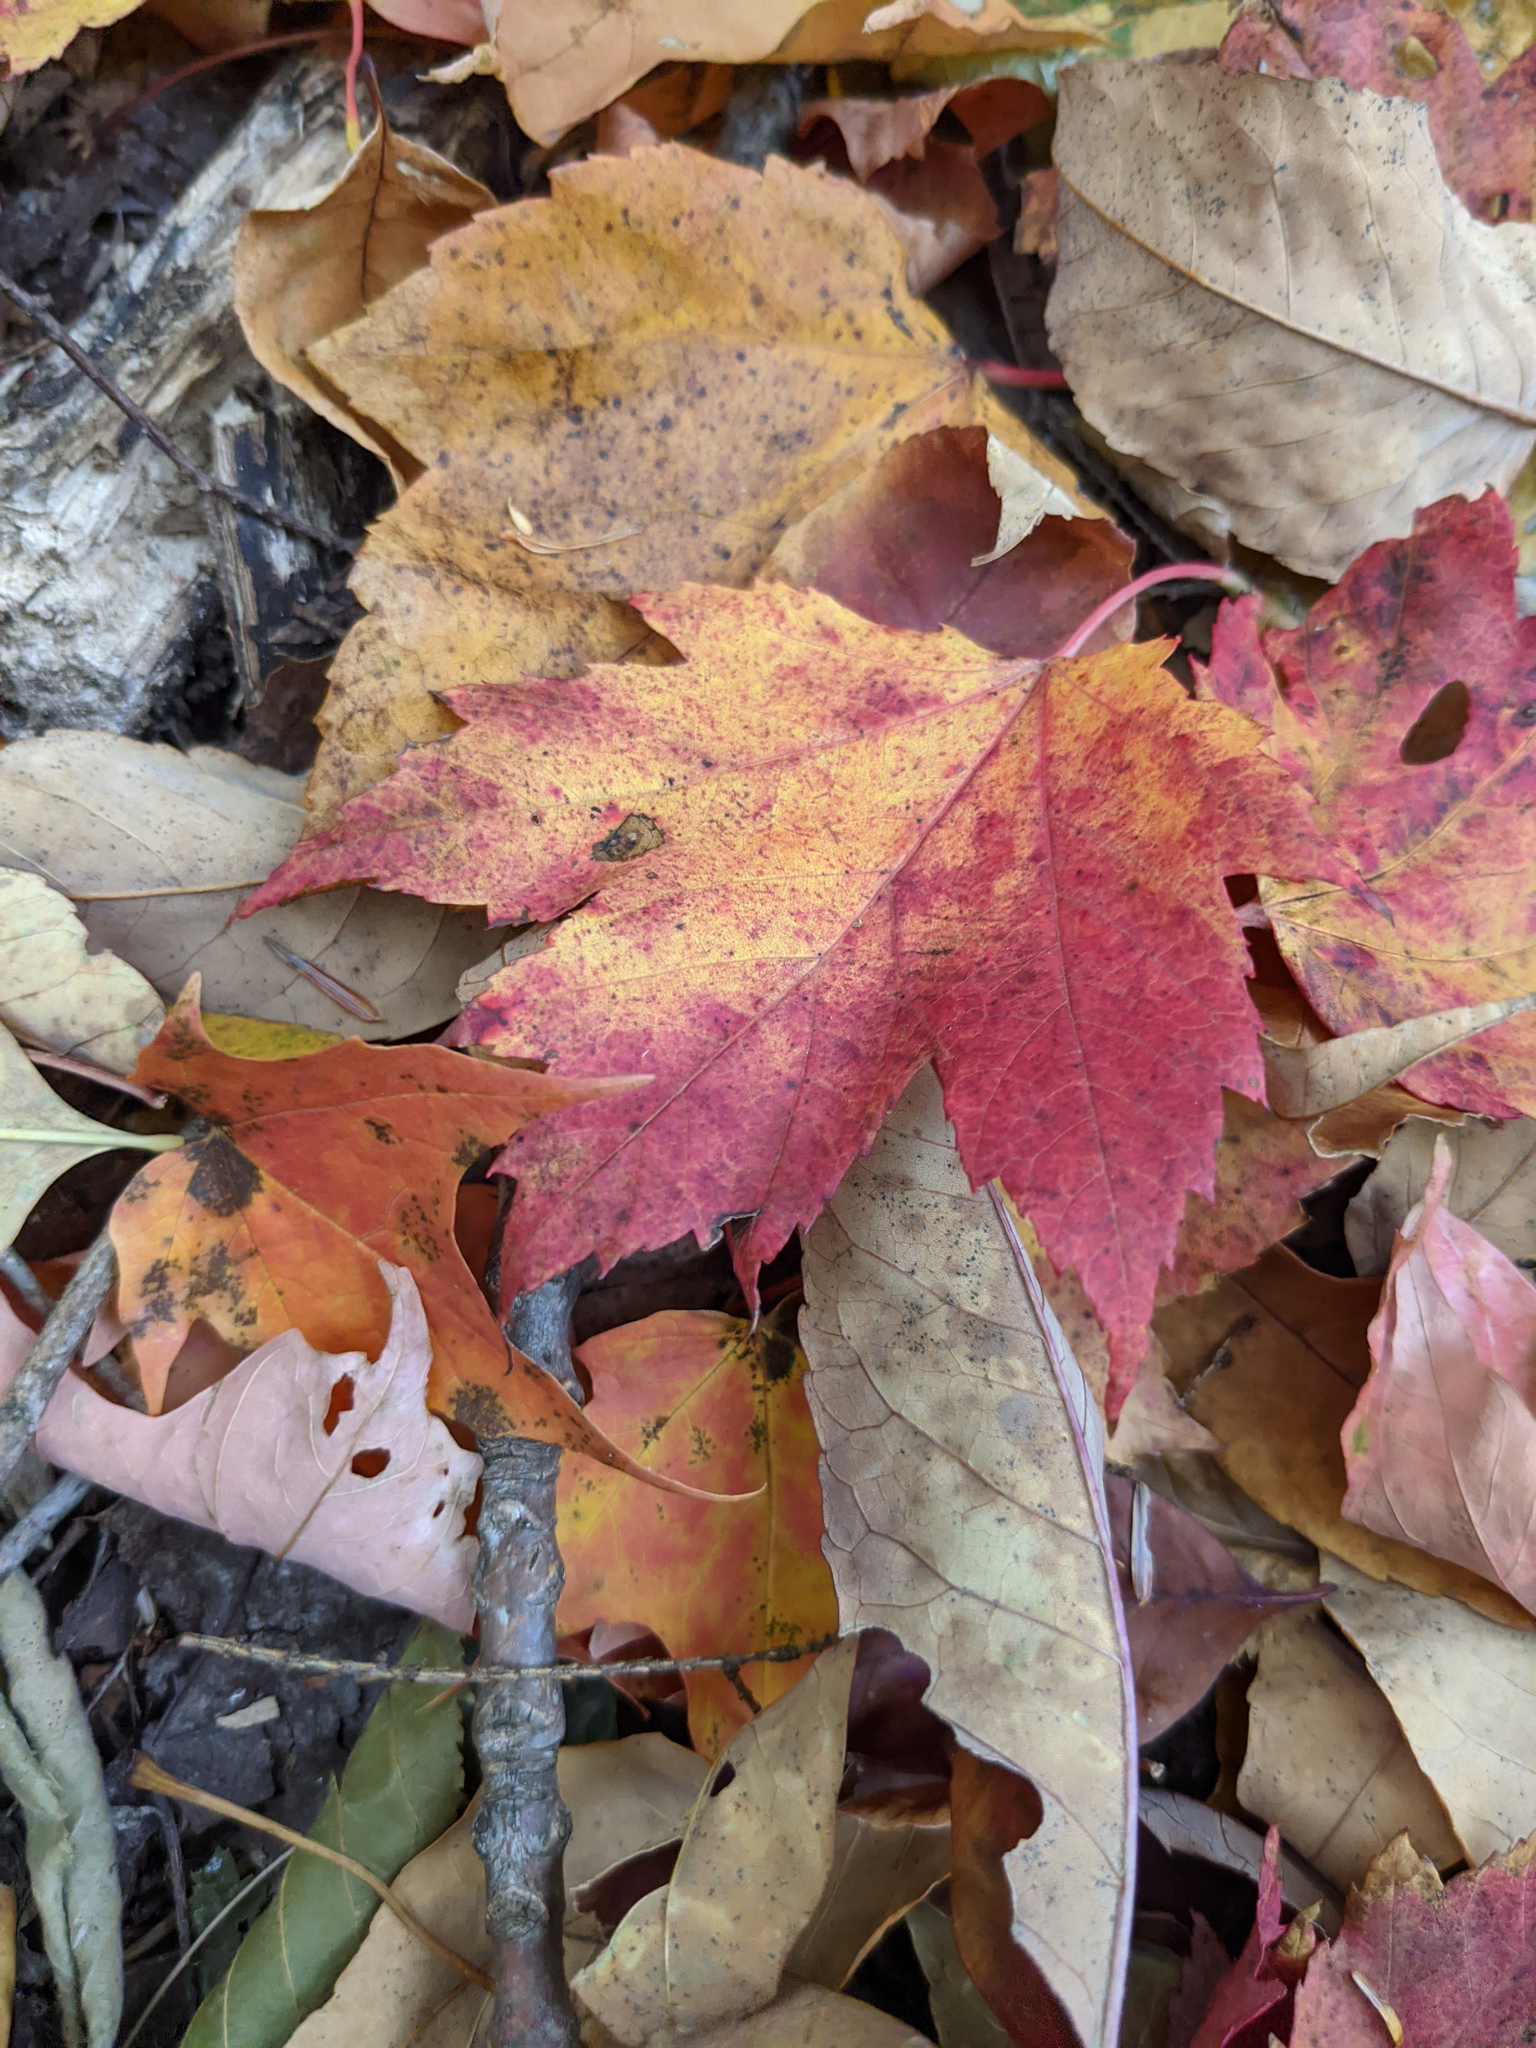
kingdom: Plantae
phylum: Tracheophyta
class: Magnoliopsida
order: Sapindales
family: Sapindaceae
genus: Acer
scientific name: Acer rubrum
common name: Red maple
